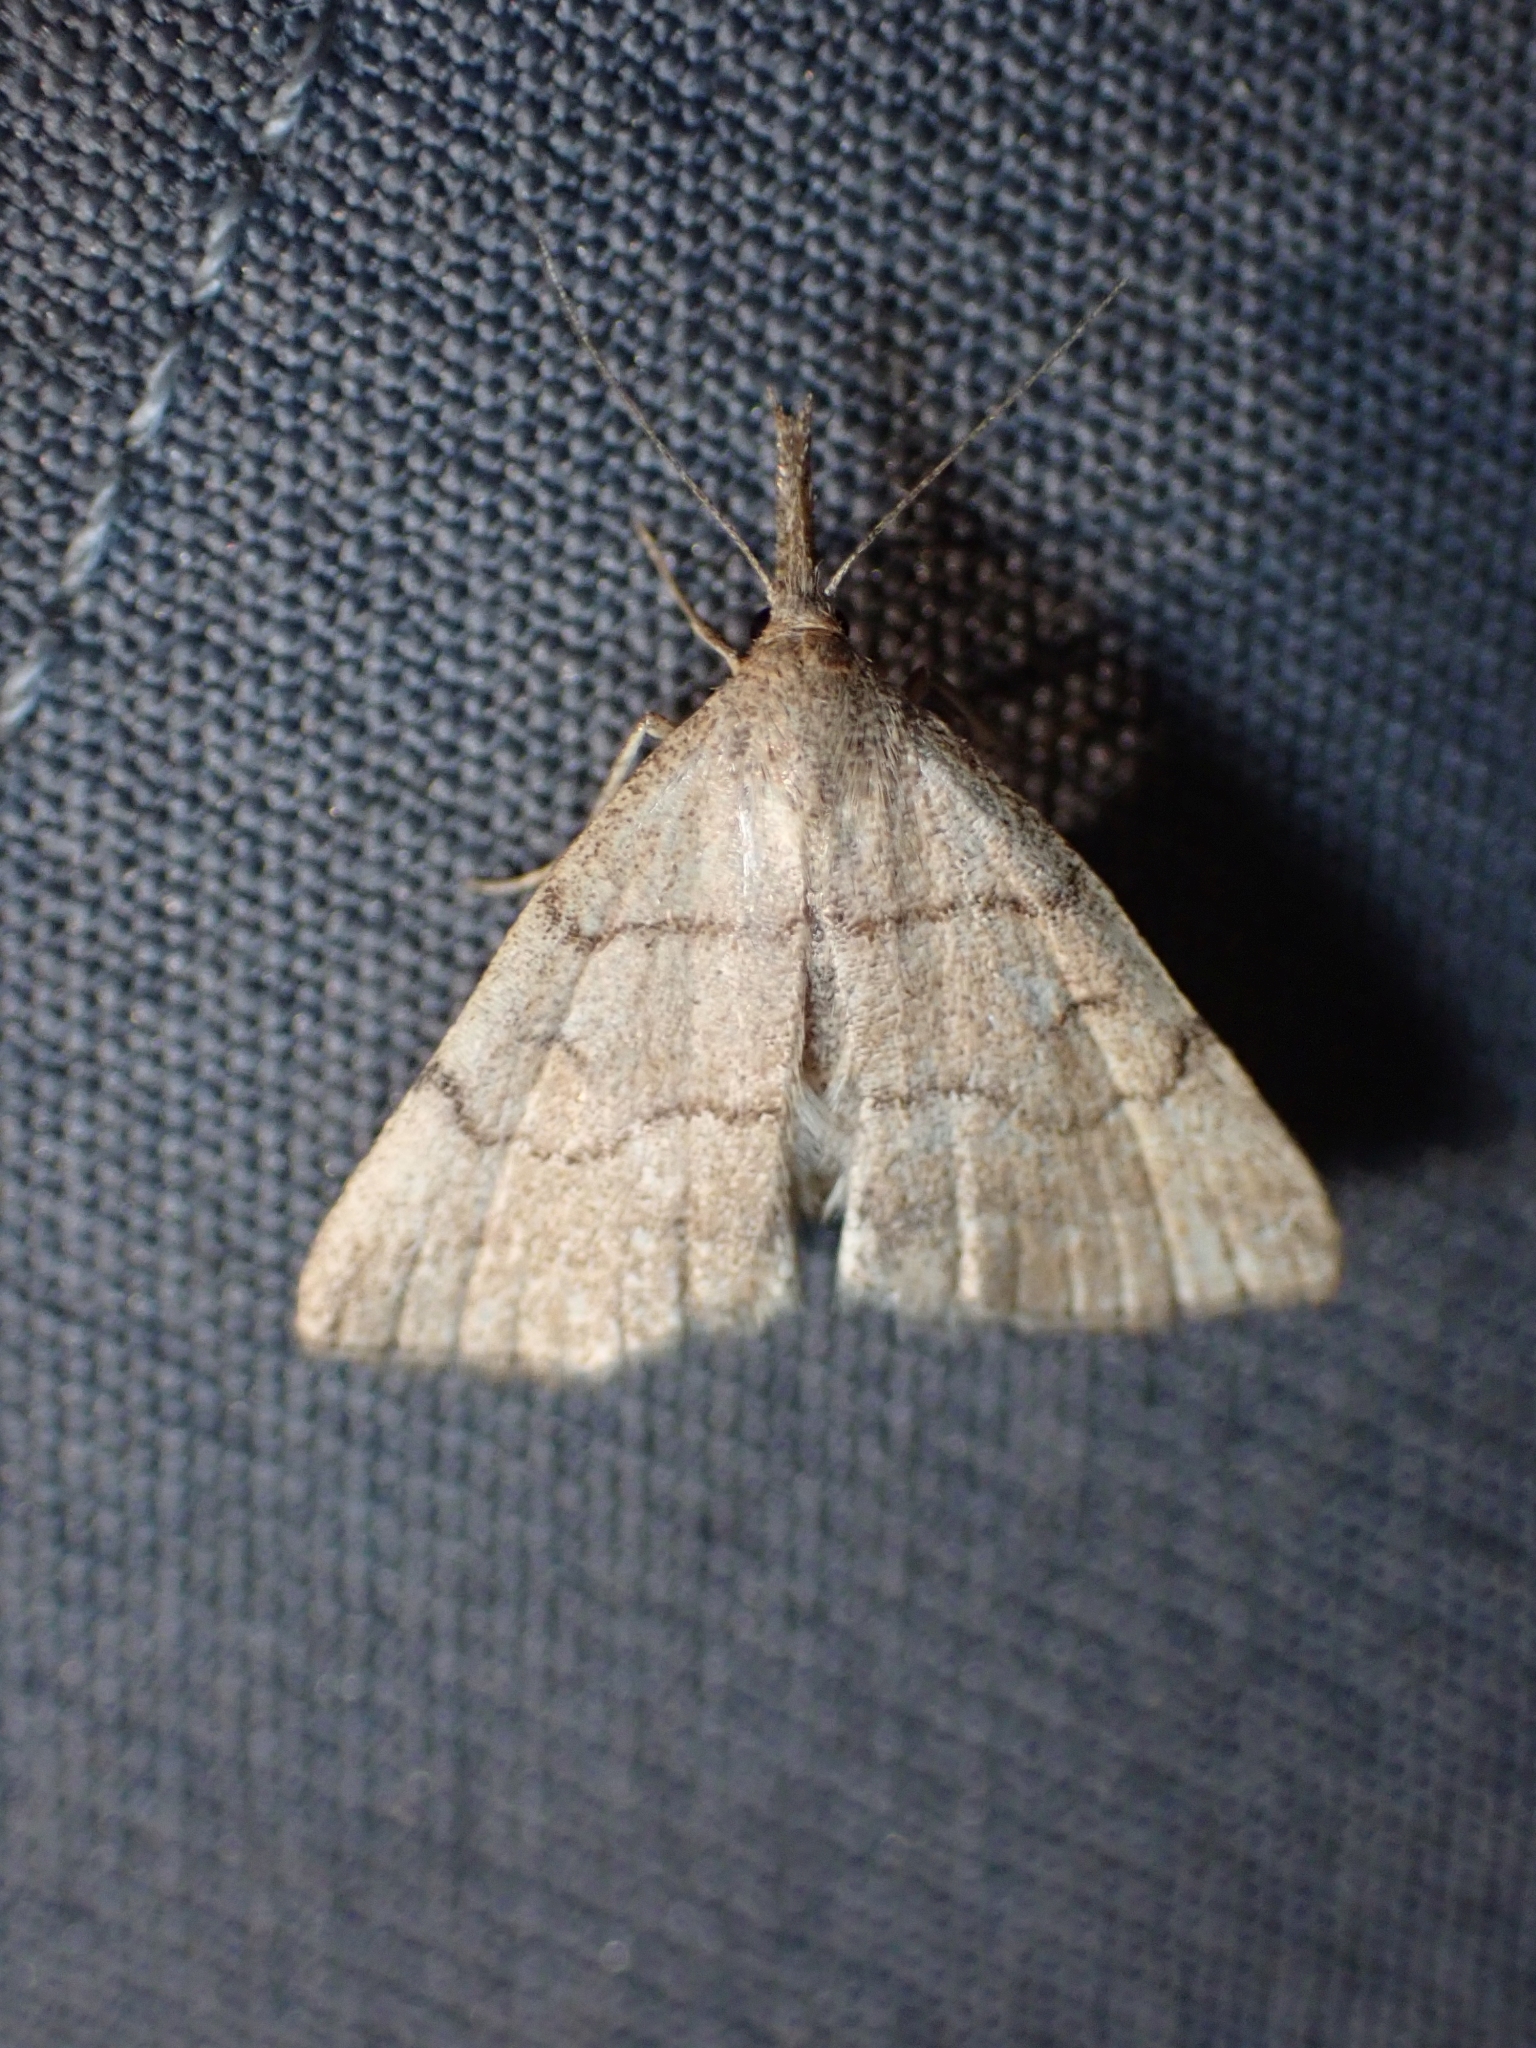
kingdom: Animalia
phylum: Arthropoda
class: Insecta
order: Lepidoptera
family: Erebidae
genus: Phalaenostola
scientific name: Phalaenostola metonalis
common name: Pale phalaenostola moth
